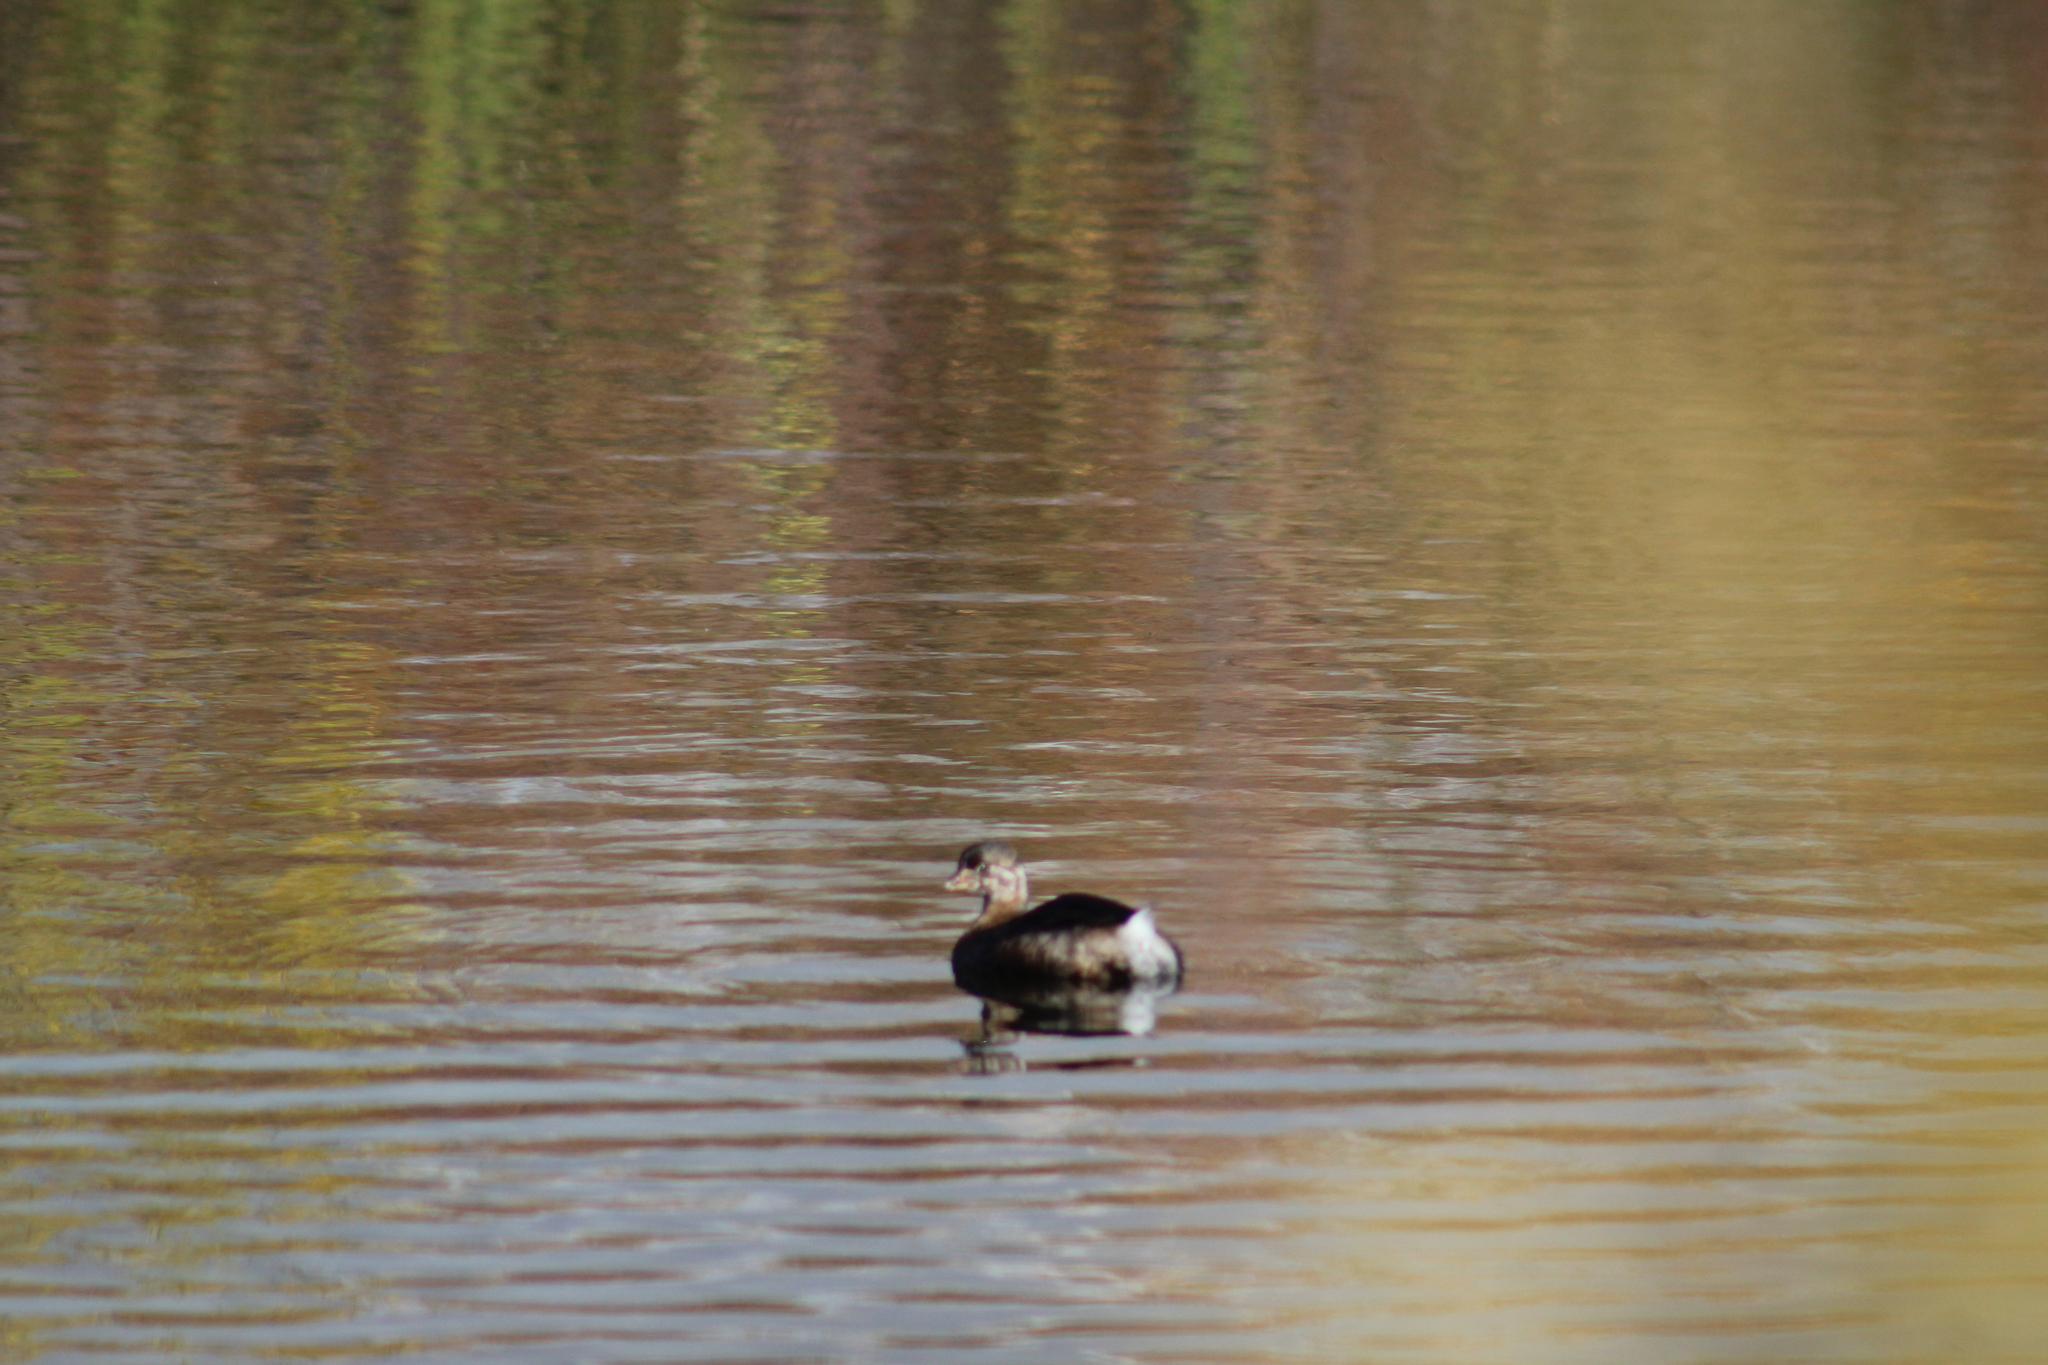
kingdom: Animalia
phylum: Chordata
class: Aves
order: Podicipediformes
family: Podicipedidae
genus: Podilymbus
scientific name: Podilymbus podiceps
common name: Pied-billed grebe
